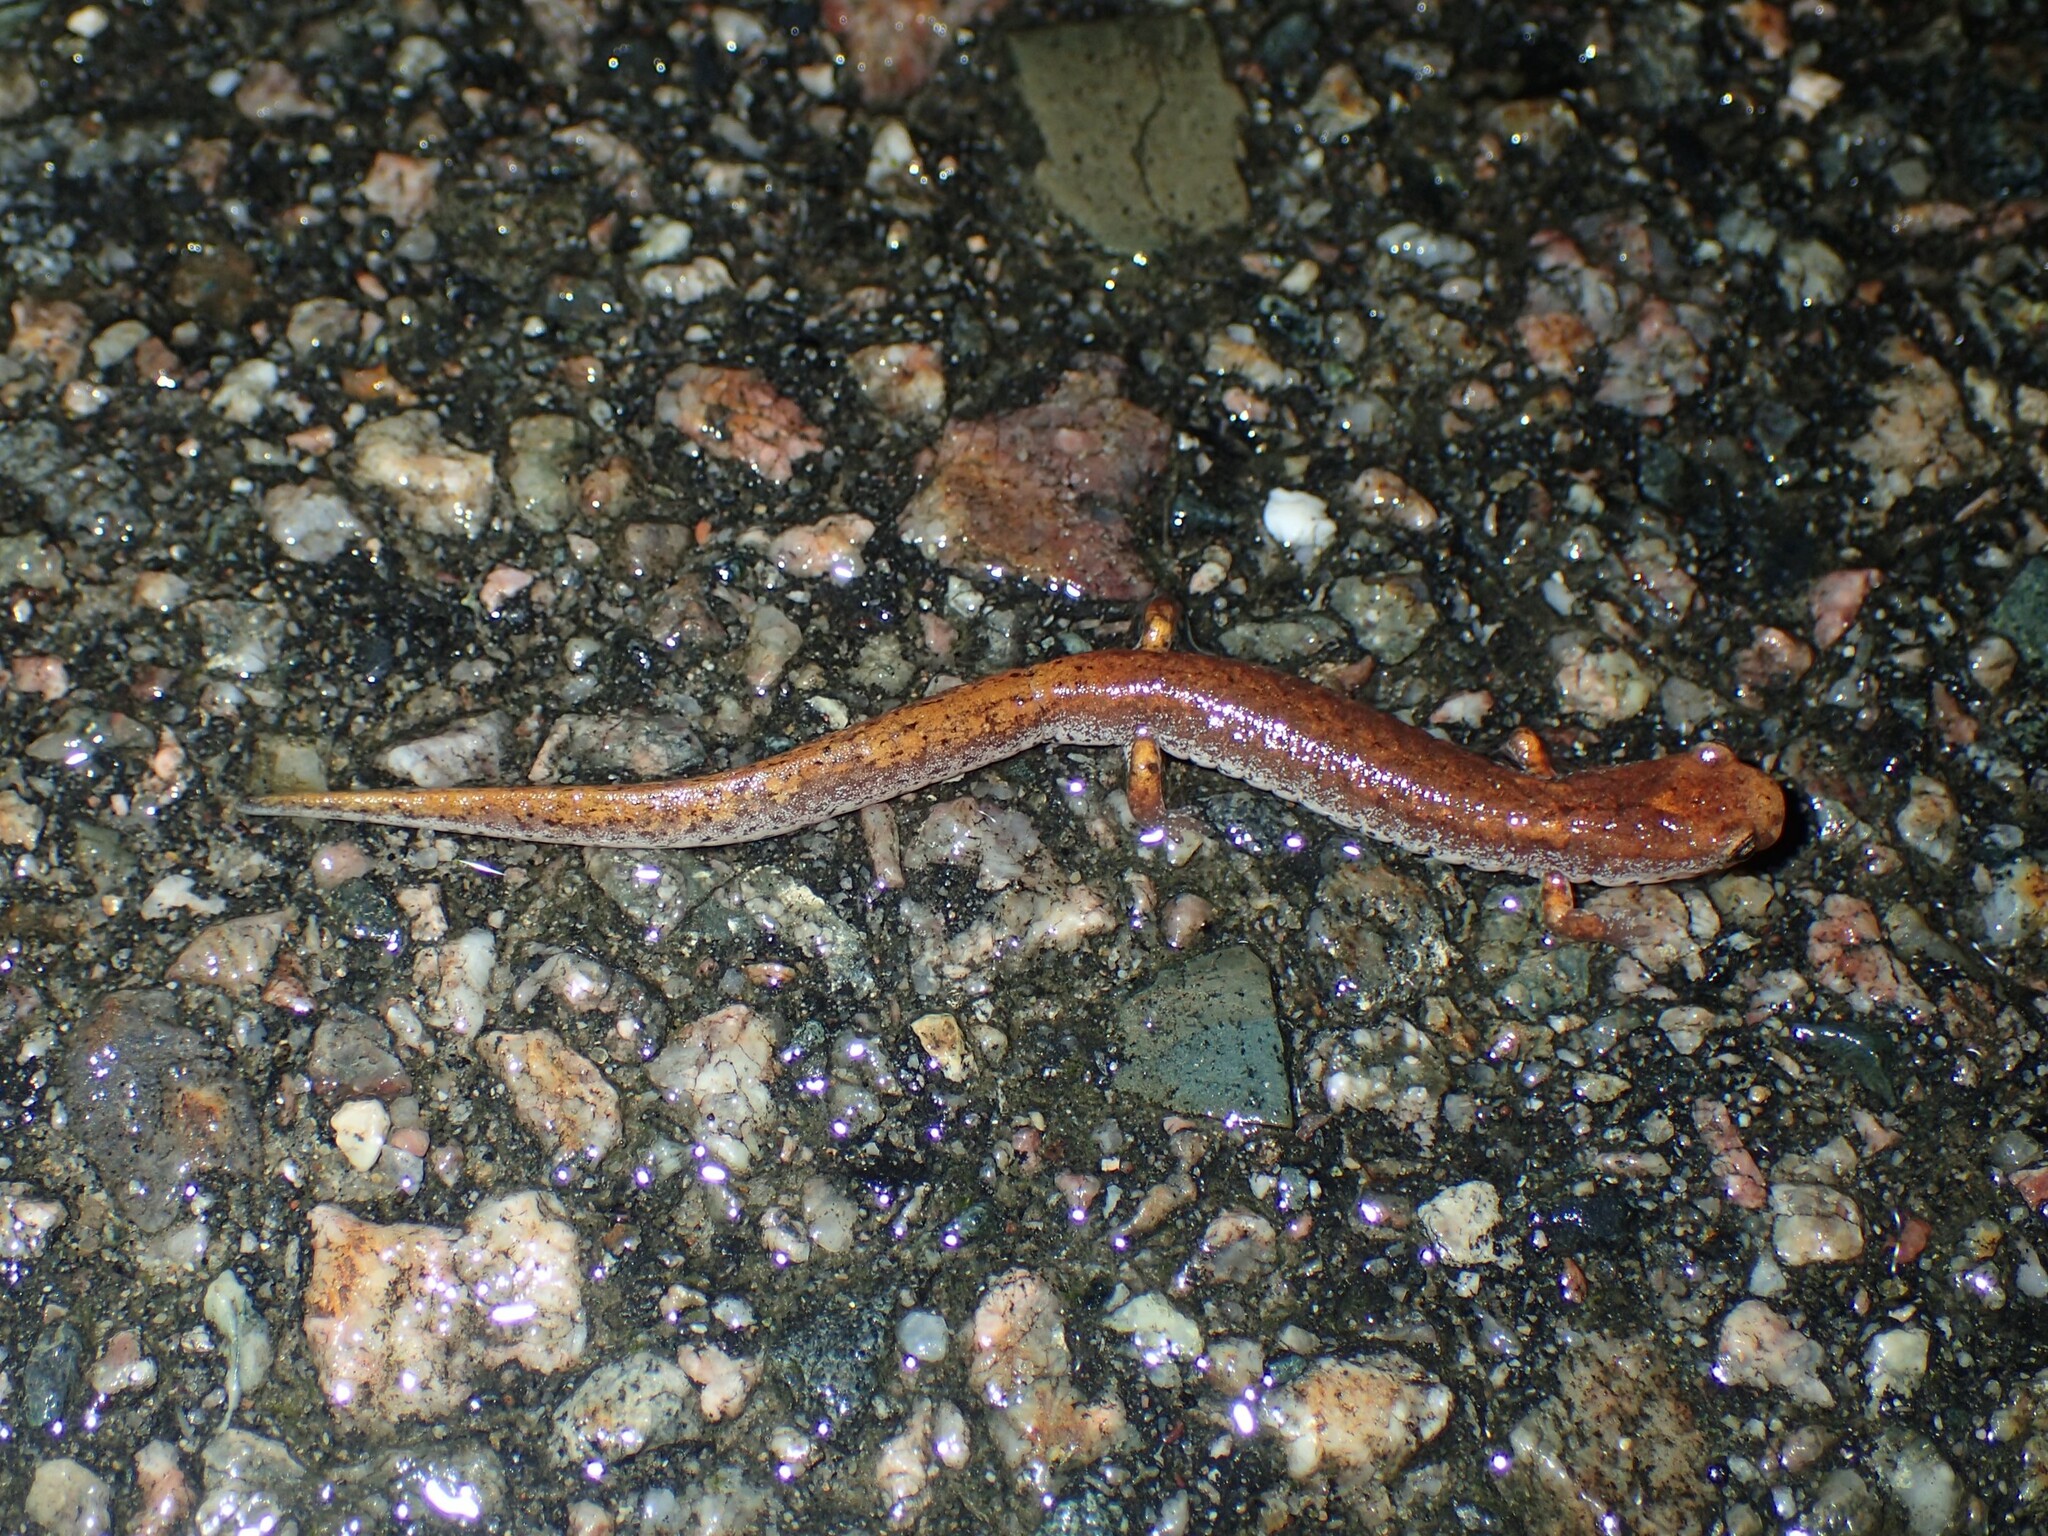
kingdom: Animalia
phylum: Chordata
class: Amphibia
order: Caudata
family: Plethodontidae
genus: Hemidactylium
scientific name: Hemidactylium scutatum
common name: Four-toed salamander
